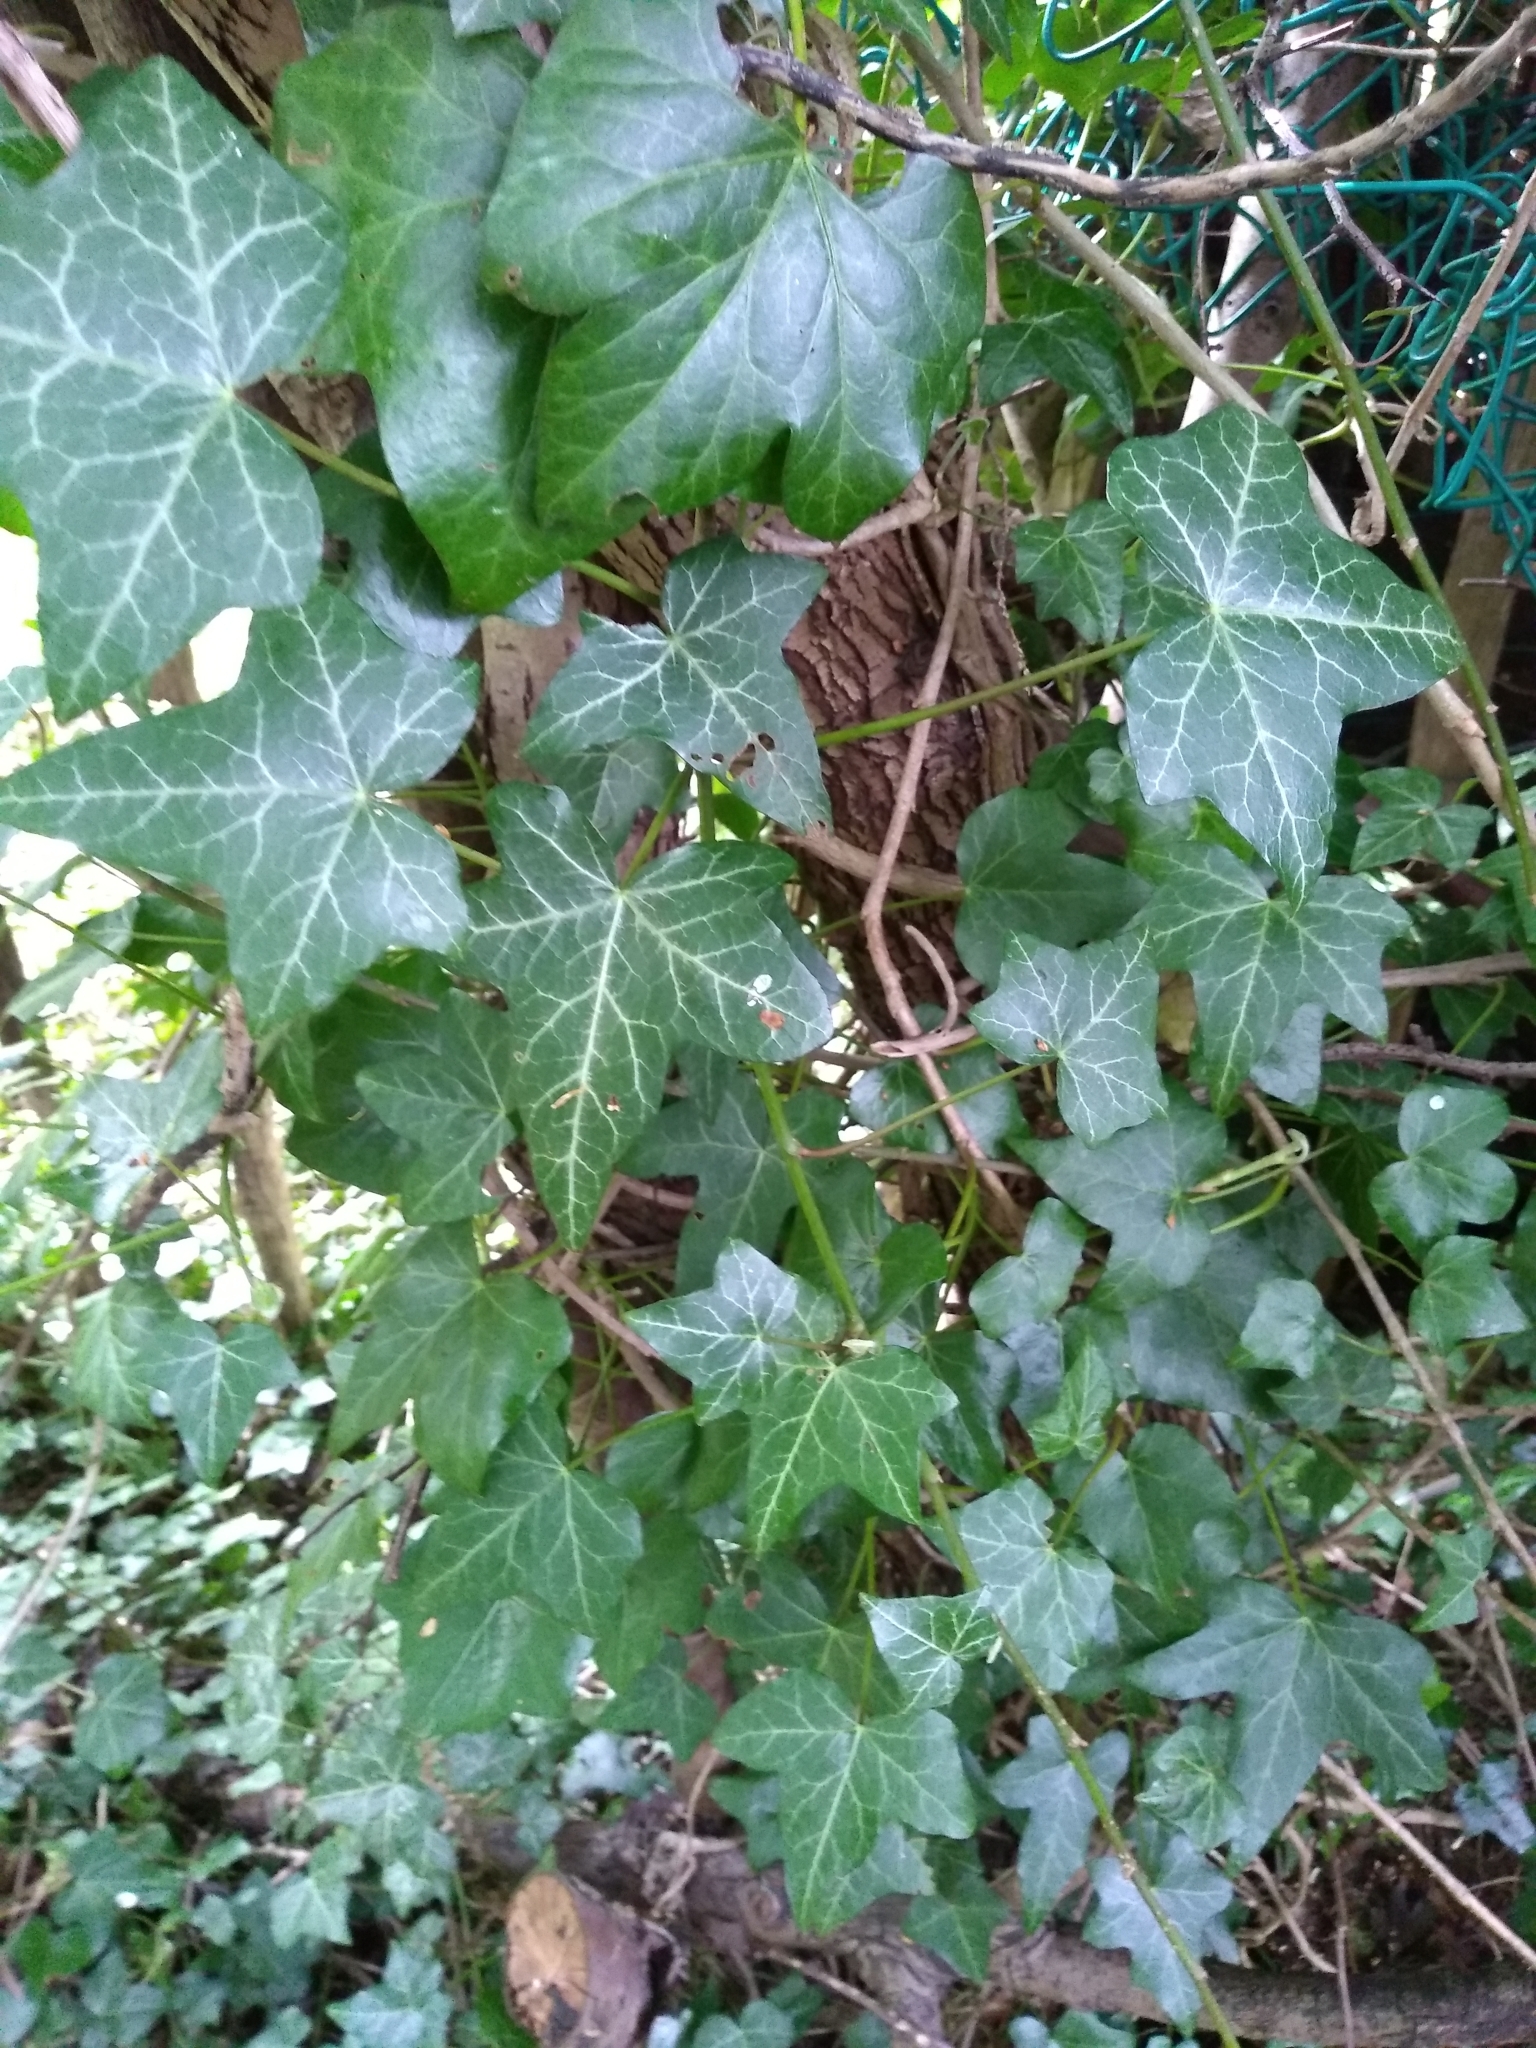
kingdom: Plantae
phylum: Tracheophyta
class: Magnoliopsida
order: Apiales
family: Araliaceae
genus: Hedera
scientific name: Hedera helix
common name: Ivy
